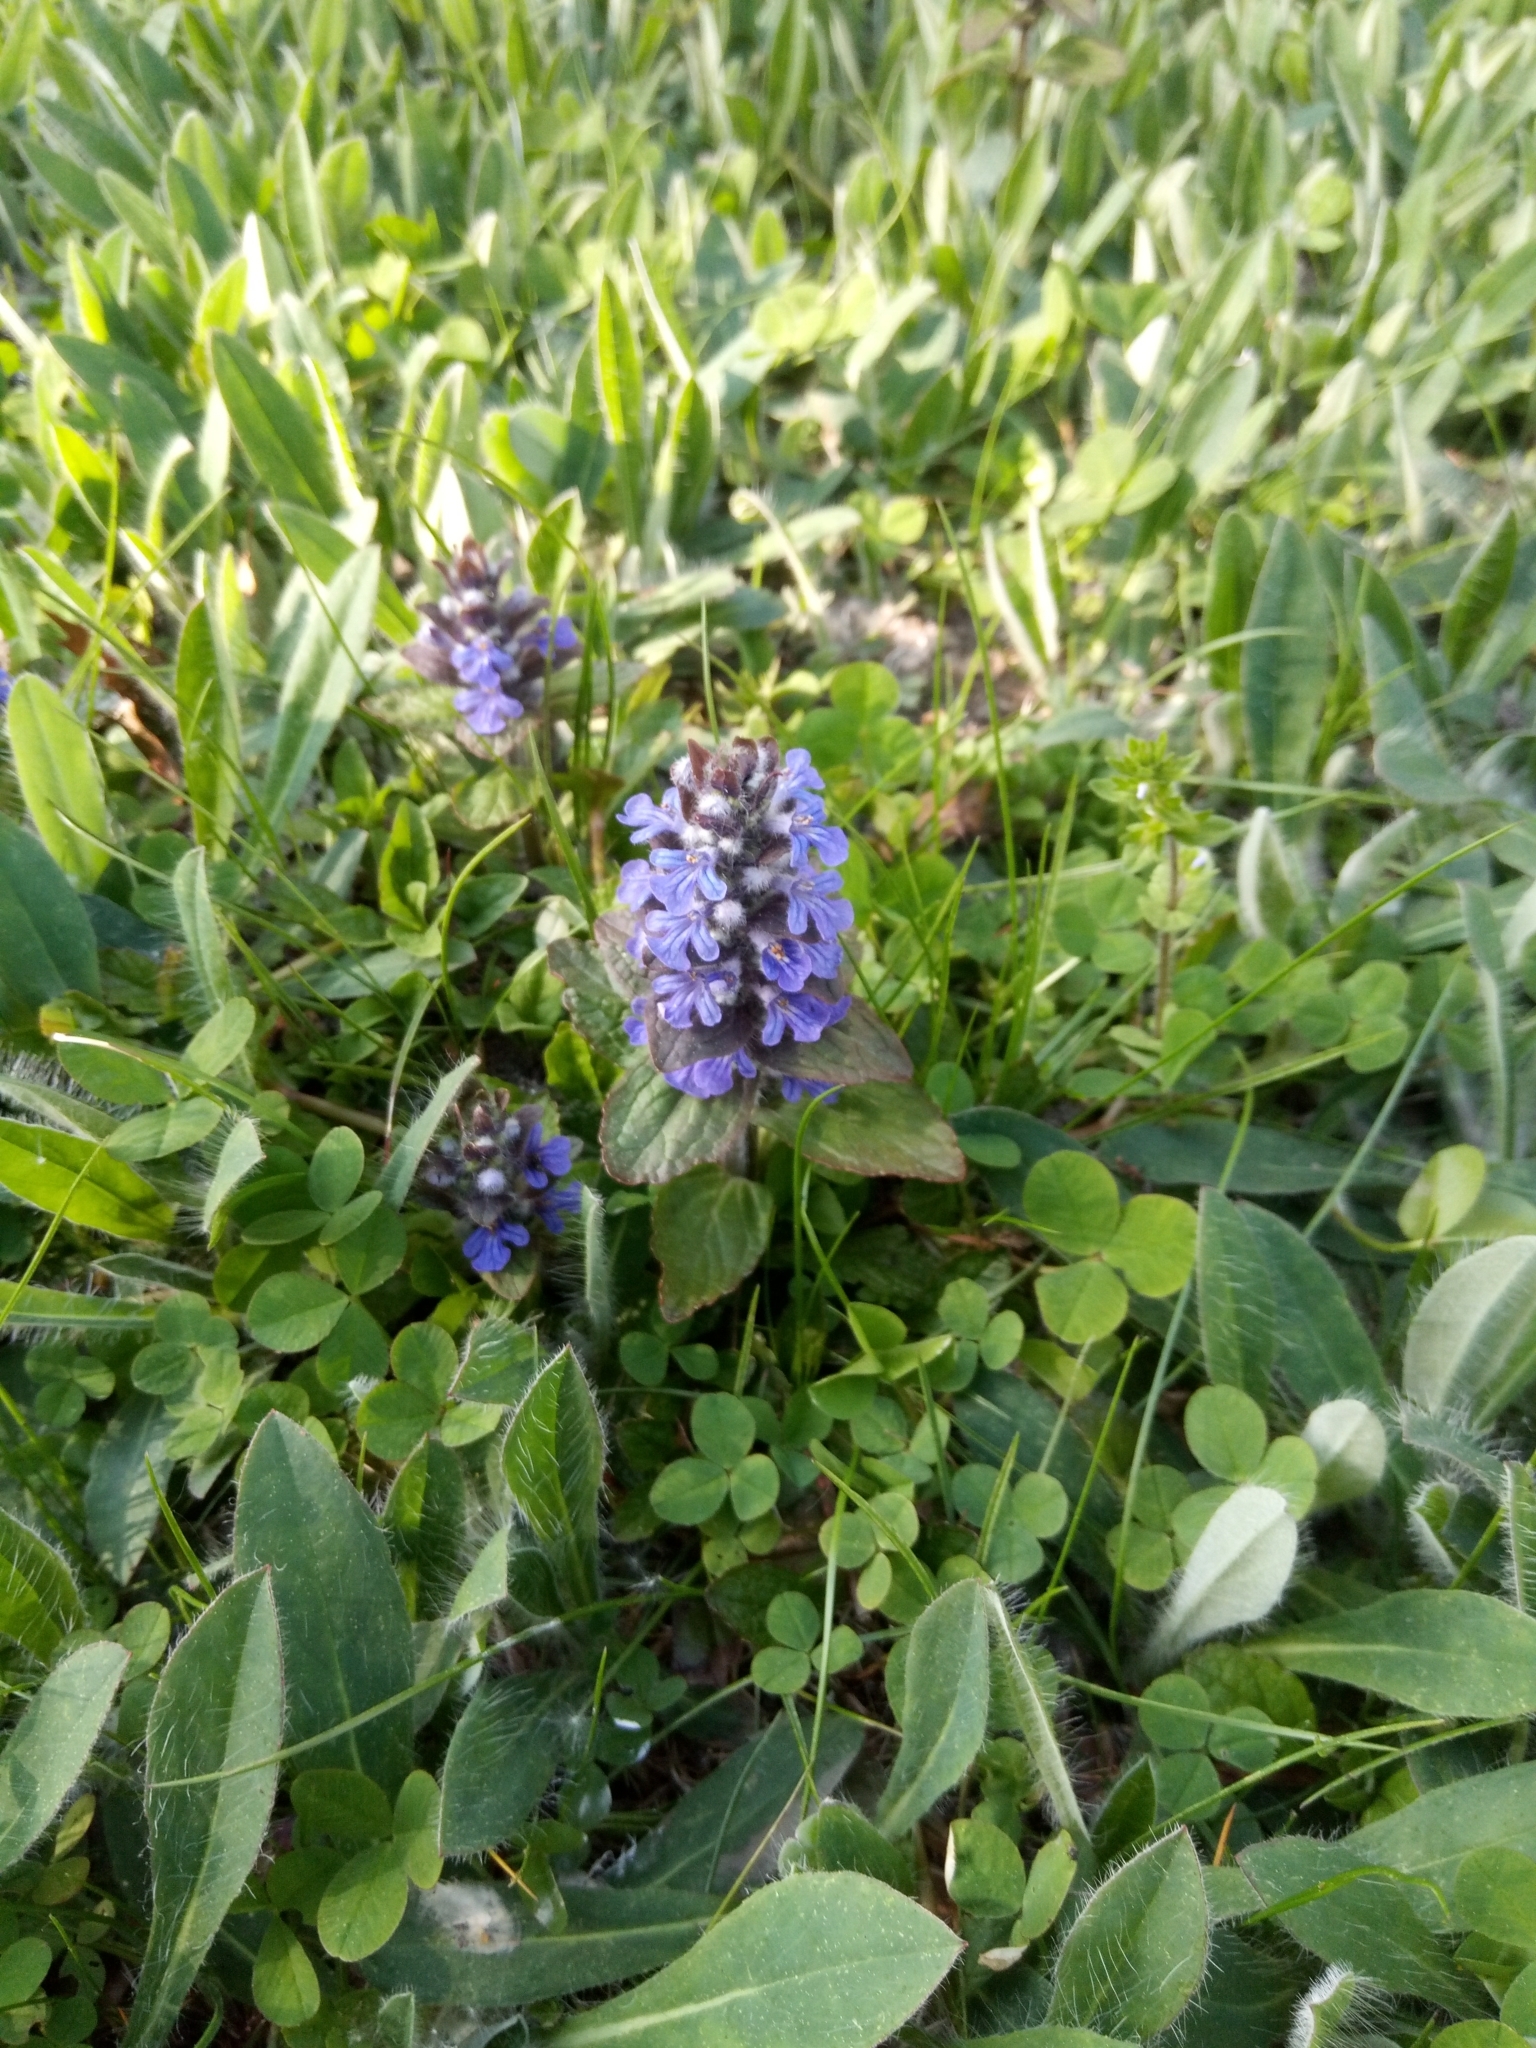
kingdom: Plantae
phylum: Tracheophyta
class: Magnoliopsida
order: Lamiales
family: Lamiaceae
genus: Ajuga
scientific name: Ajuga reptans
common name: Bugle
